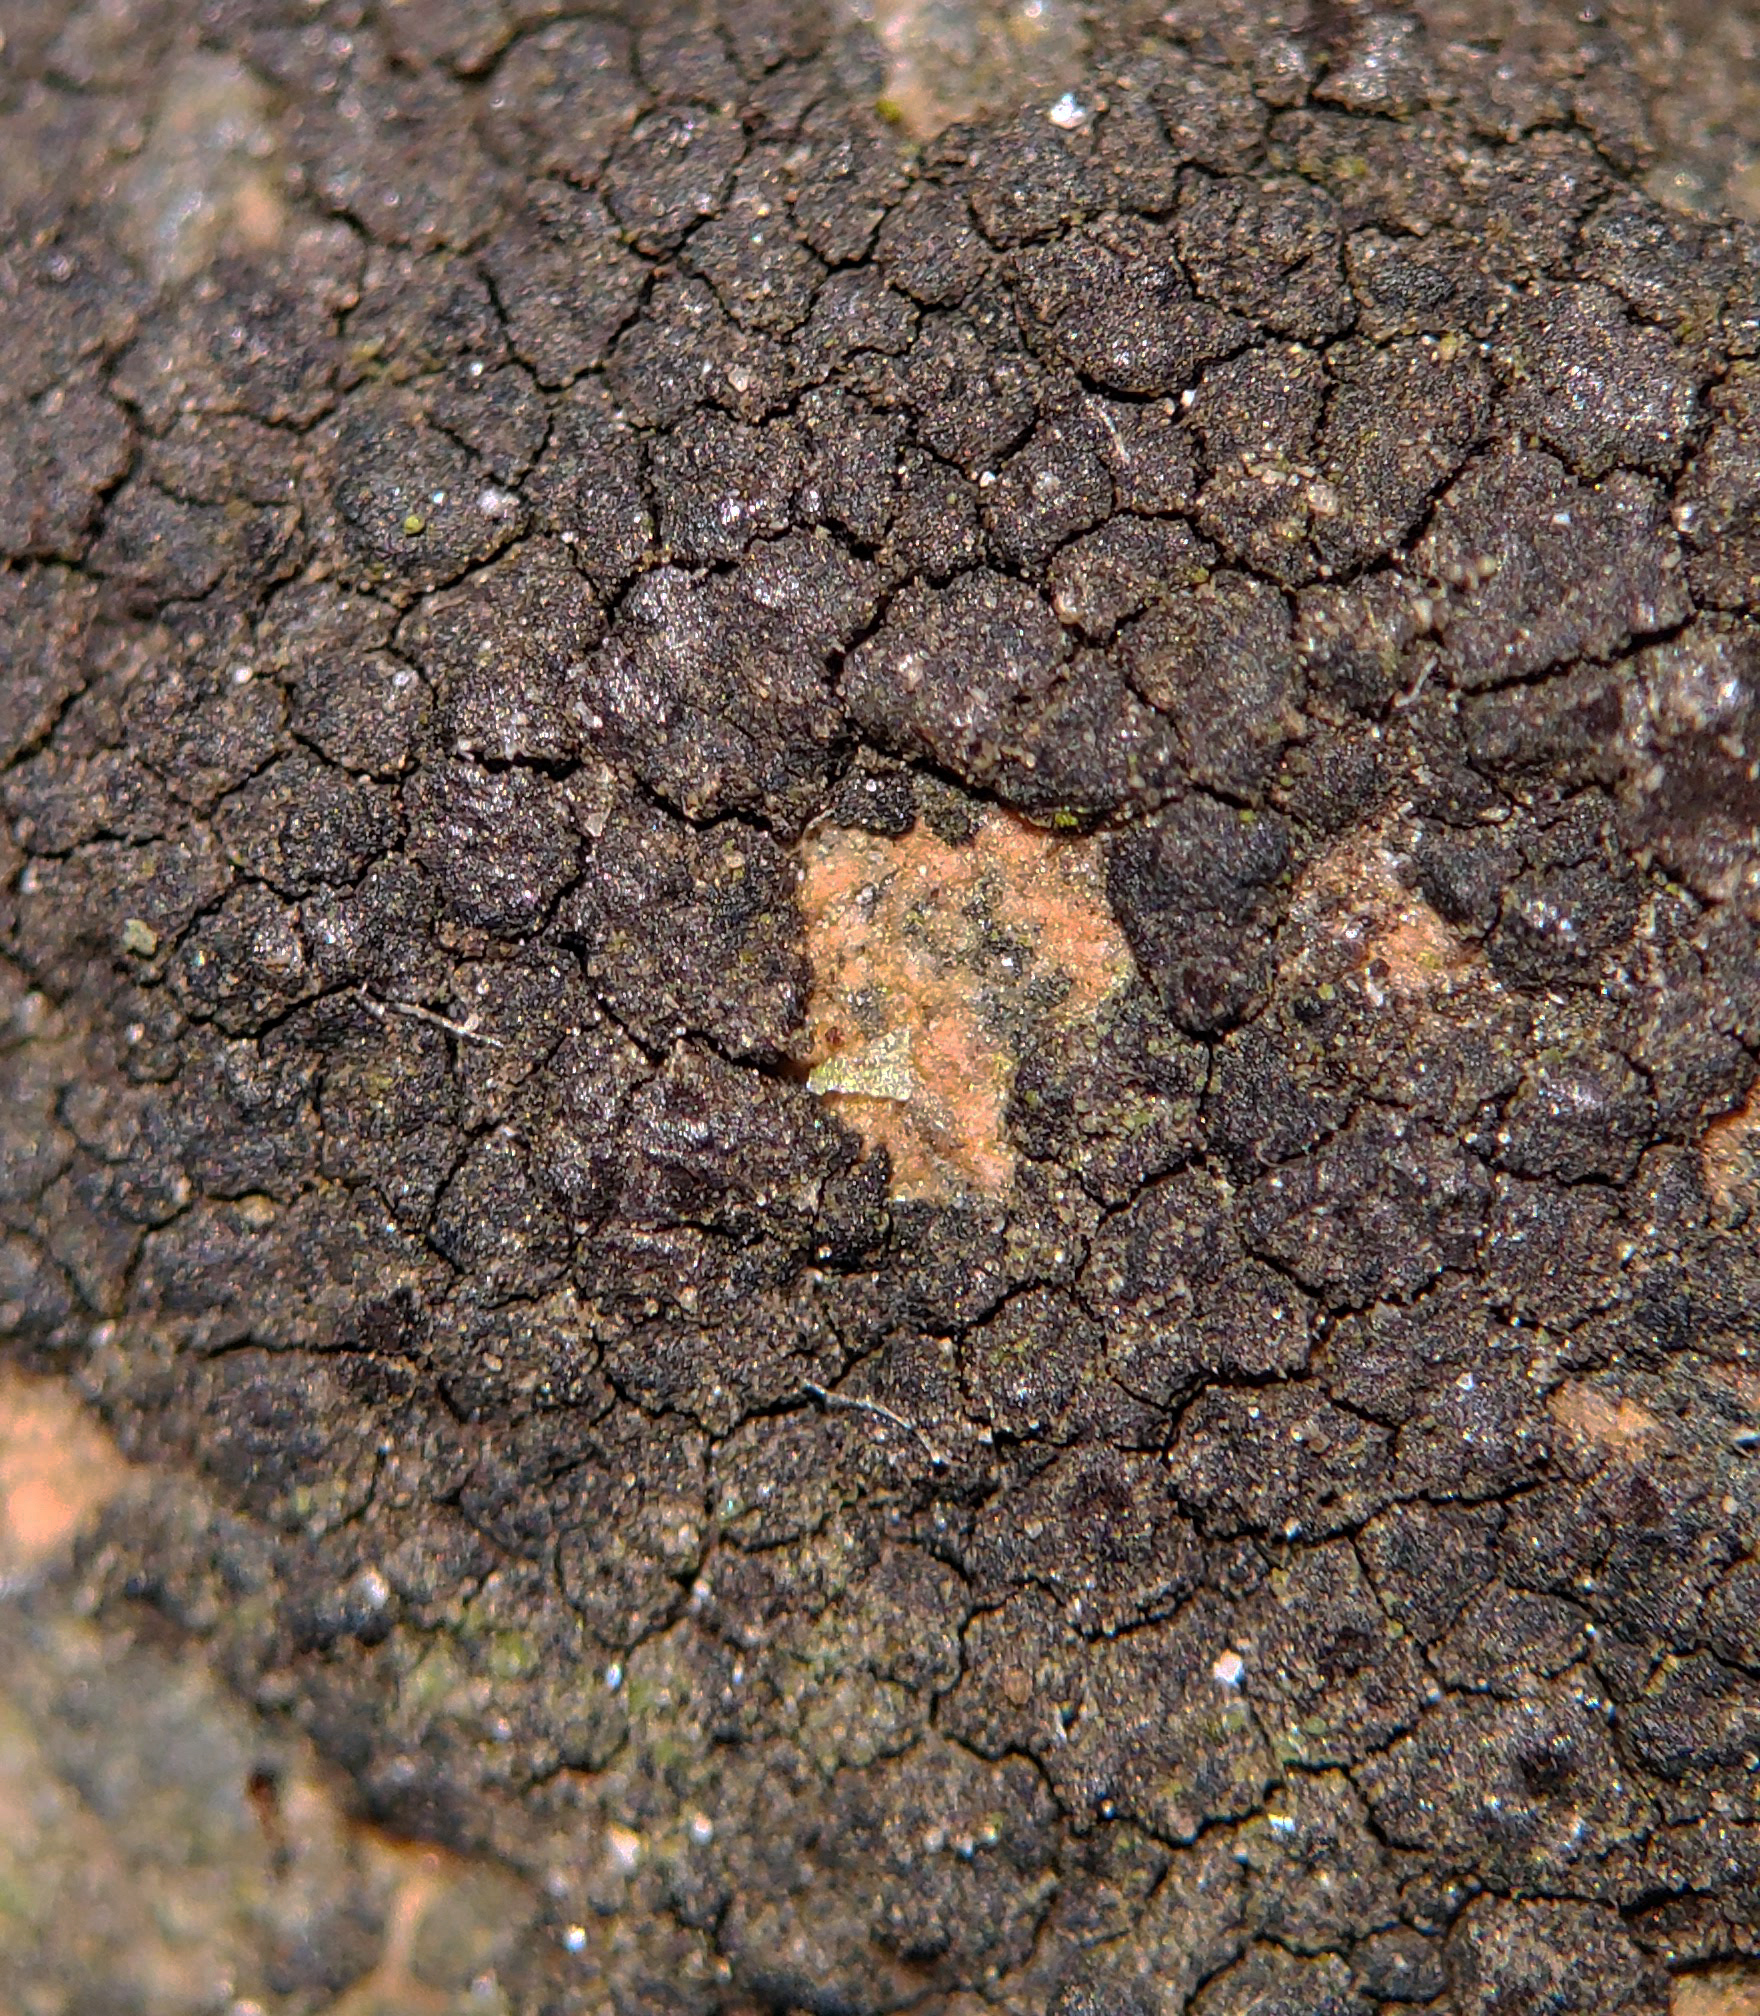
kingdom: Fungi
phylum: Ascomycota
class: Eurotiomycetes
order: Verrucariales
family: Verrucariaceae
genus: Verrucaria
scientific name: Verrucaria nigrescens
